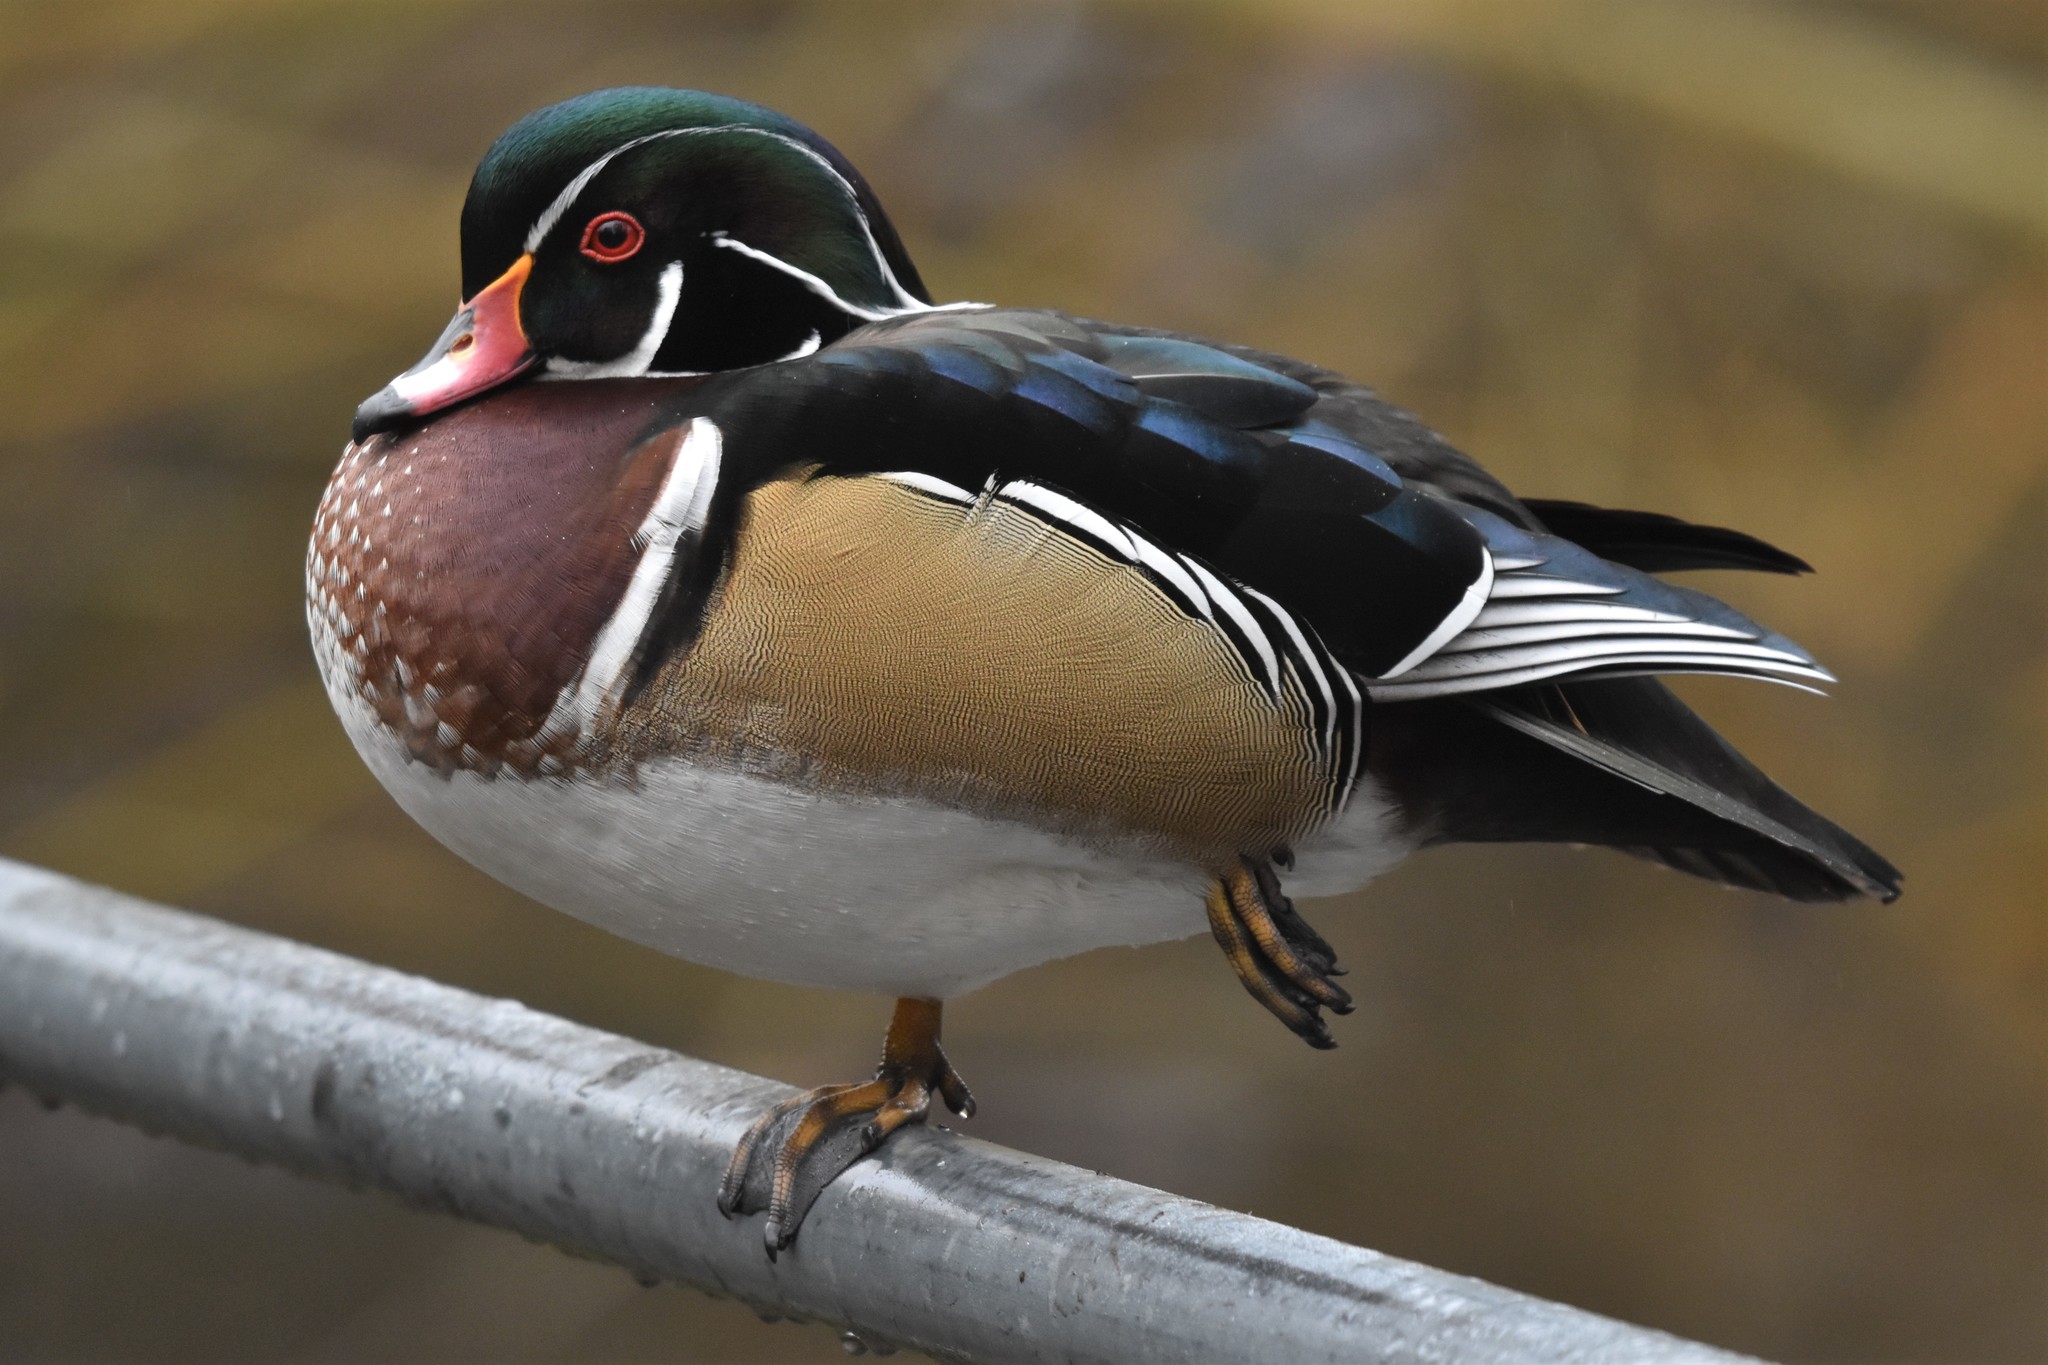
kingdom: Animalia
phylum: Chordata
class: Aves
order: Anseriformes
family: Anatidae
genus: Aix
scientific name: Aix sponsa
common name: Wood duck
